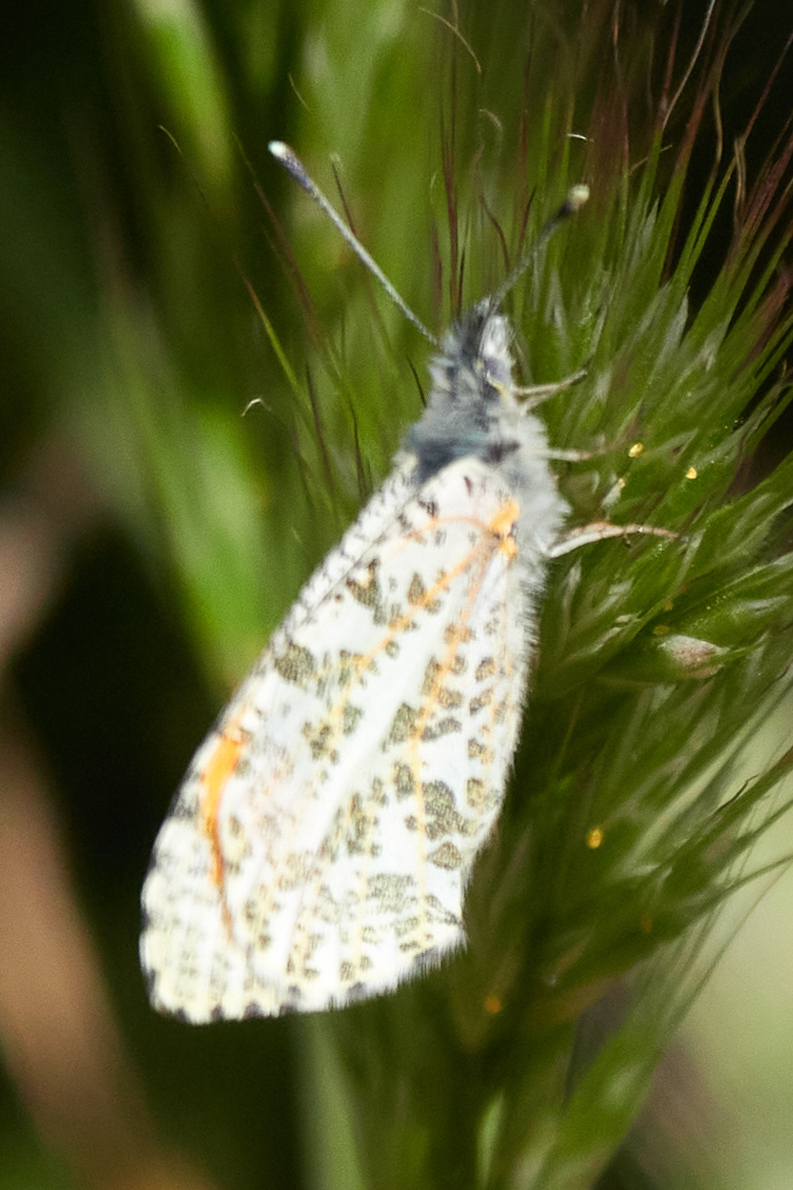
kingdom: Animalia
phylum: Arthropoda
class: Insecta
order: Lepidoptera
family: Pieridae
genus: Anthocharis
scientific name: Anthocharis sara
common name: Sara's orangetip
